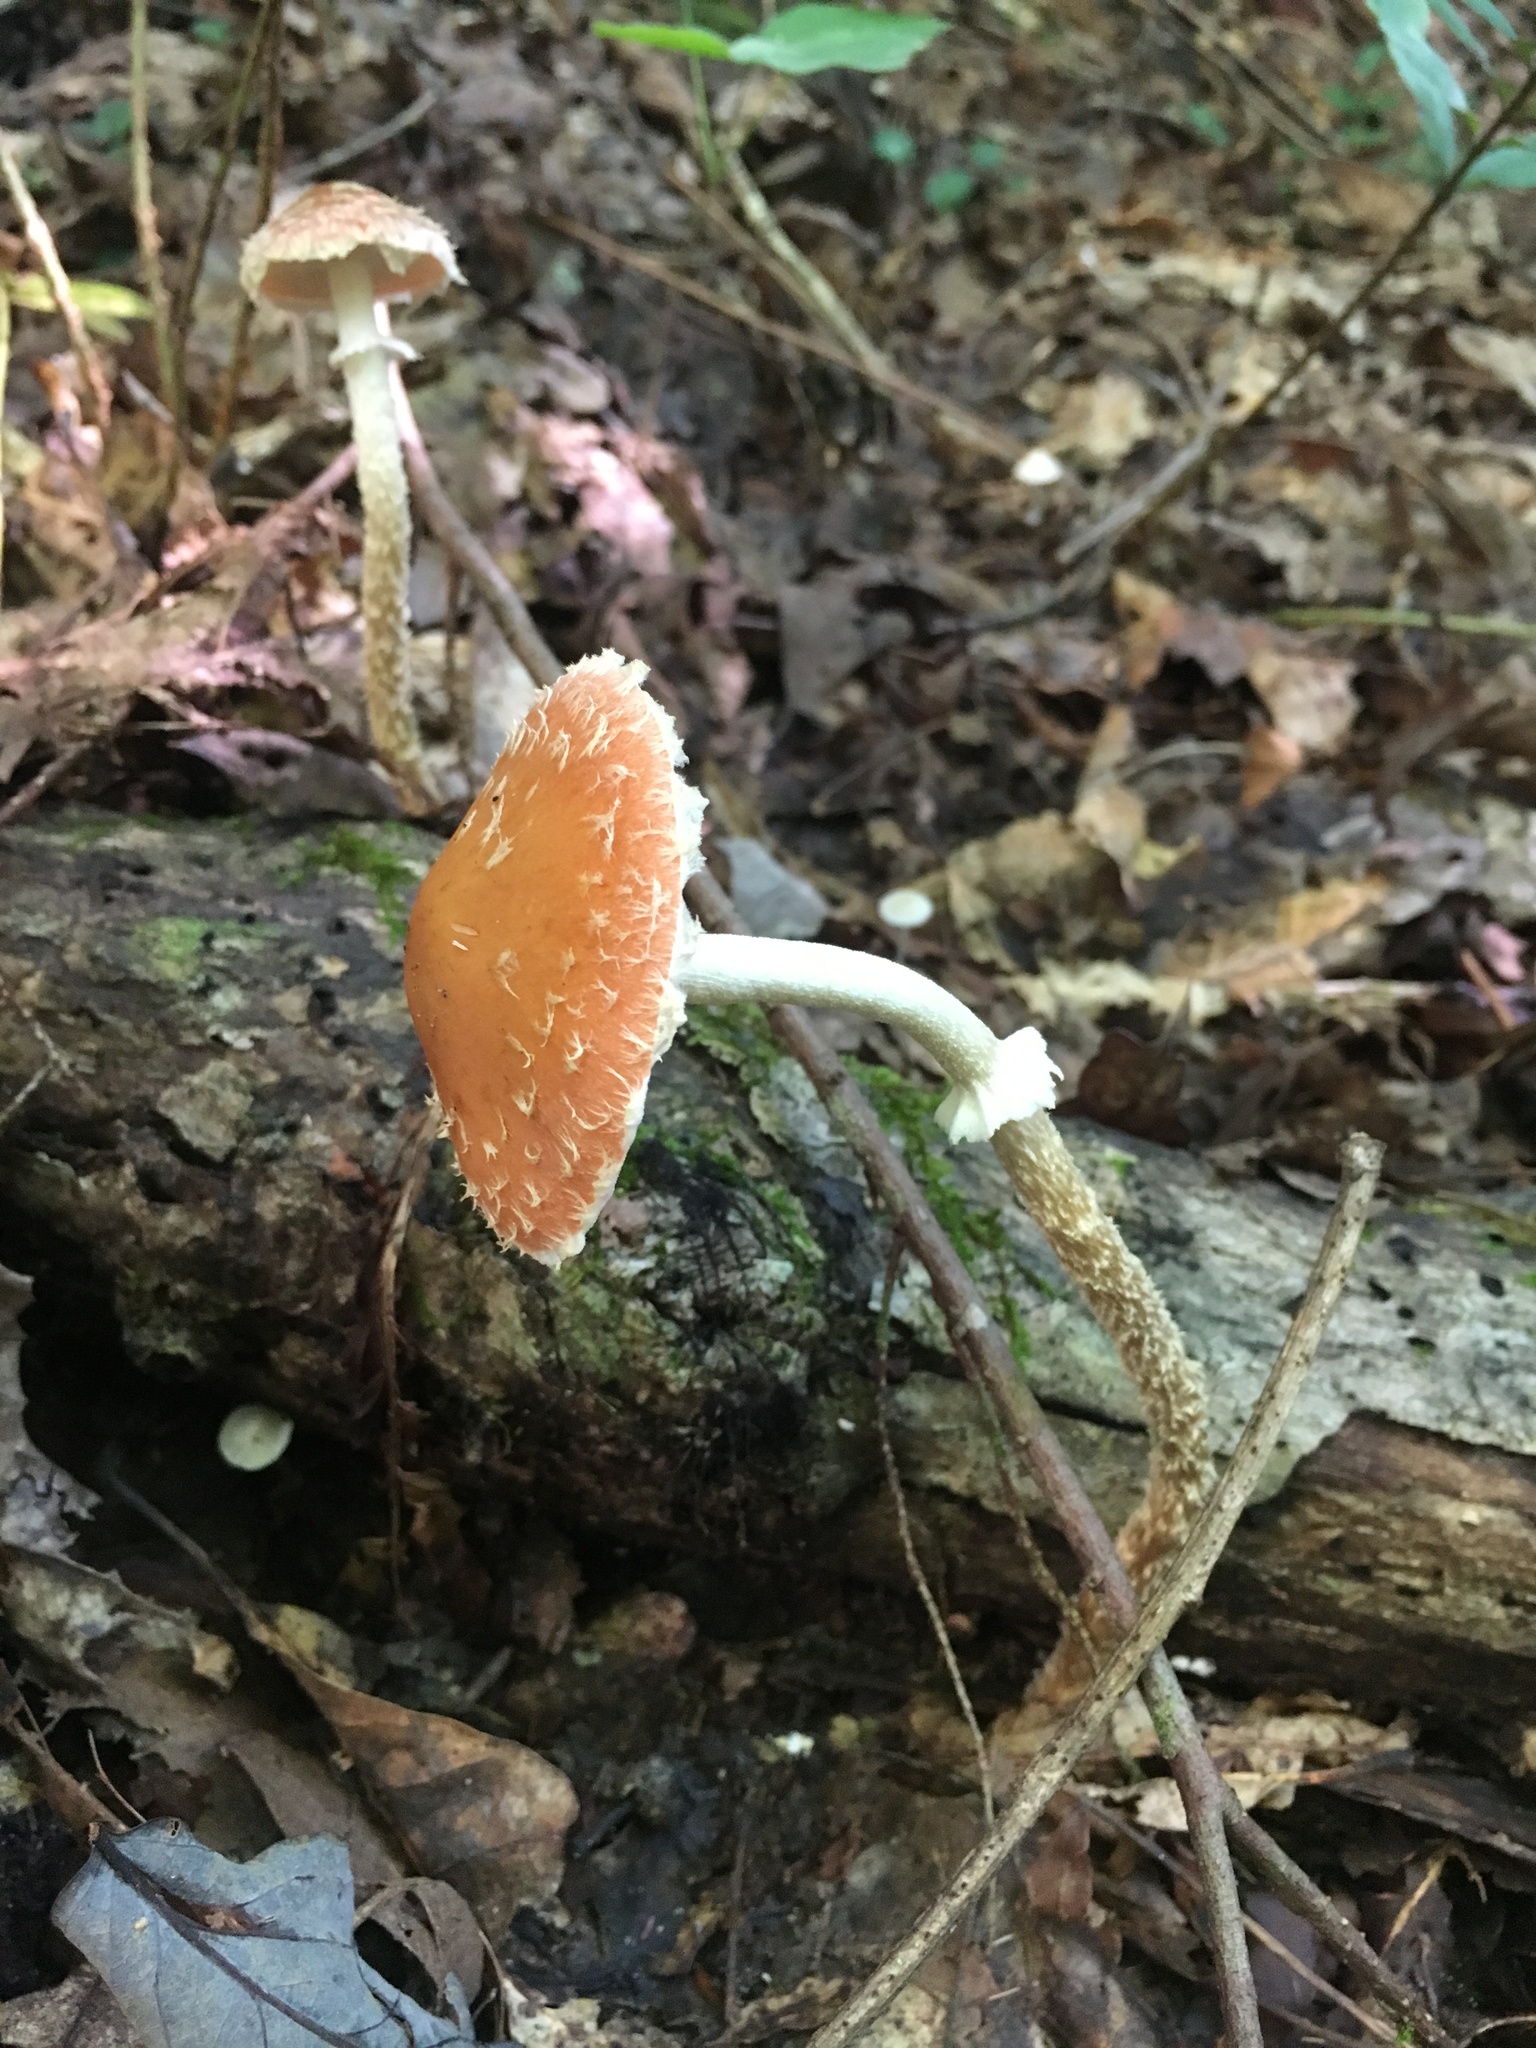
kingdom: Fungi
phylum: Basidiomycota
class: Agaricomycetes
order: Agaricales
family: Strophariaceae
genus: Leratiomyces
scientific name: Leratiomyces squamosus
